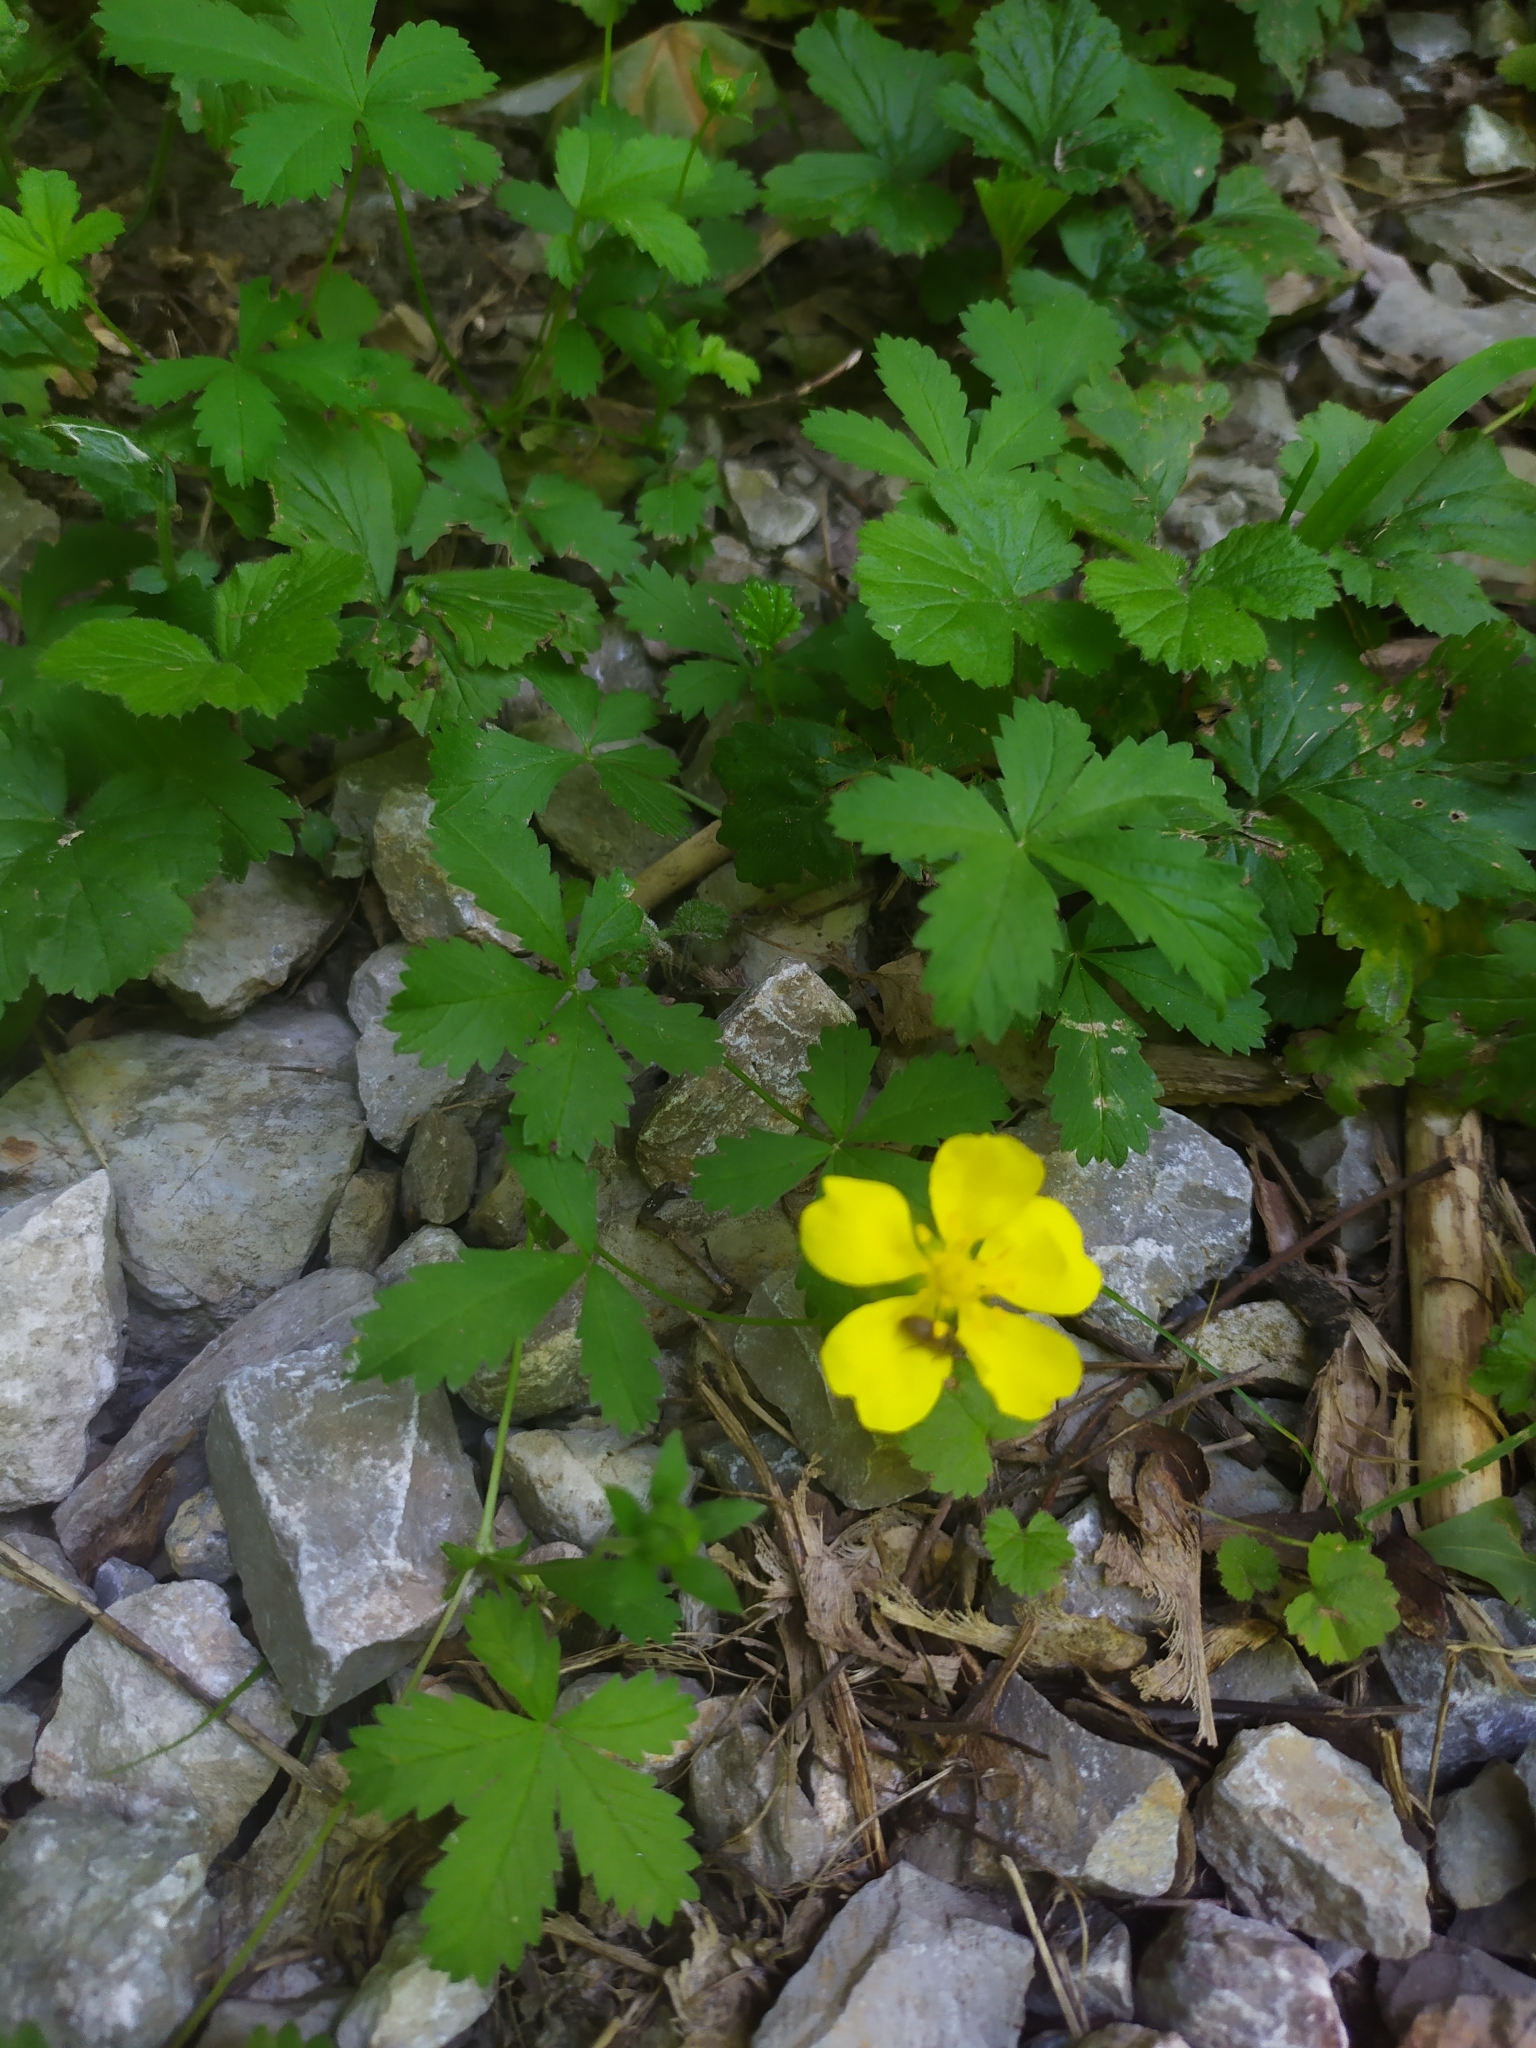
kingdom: Plantae
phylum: Tracheophyta
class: Magnoliopsida
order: Rosales
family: Rosaceae
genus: Potentilla
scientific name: Potentilla reptans
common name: Creeping cinquefoil
